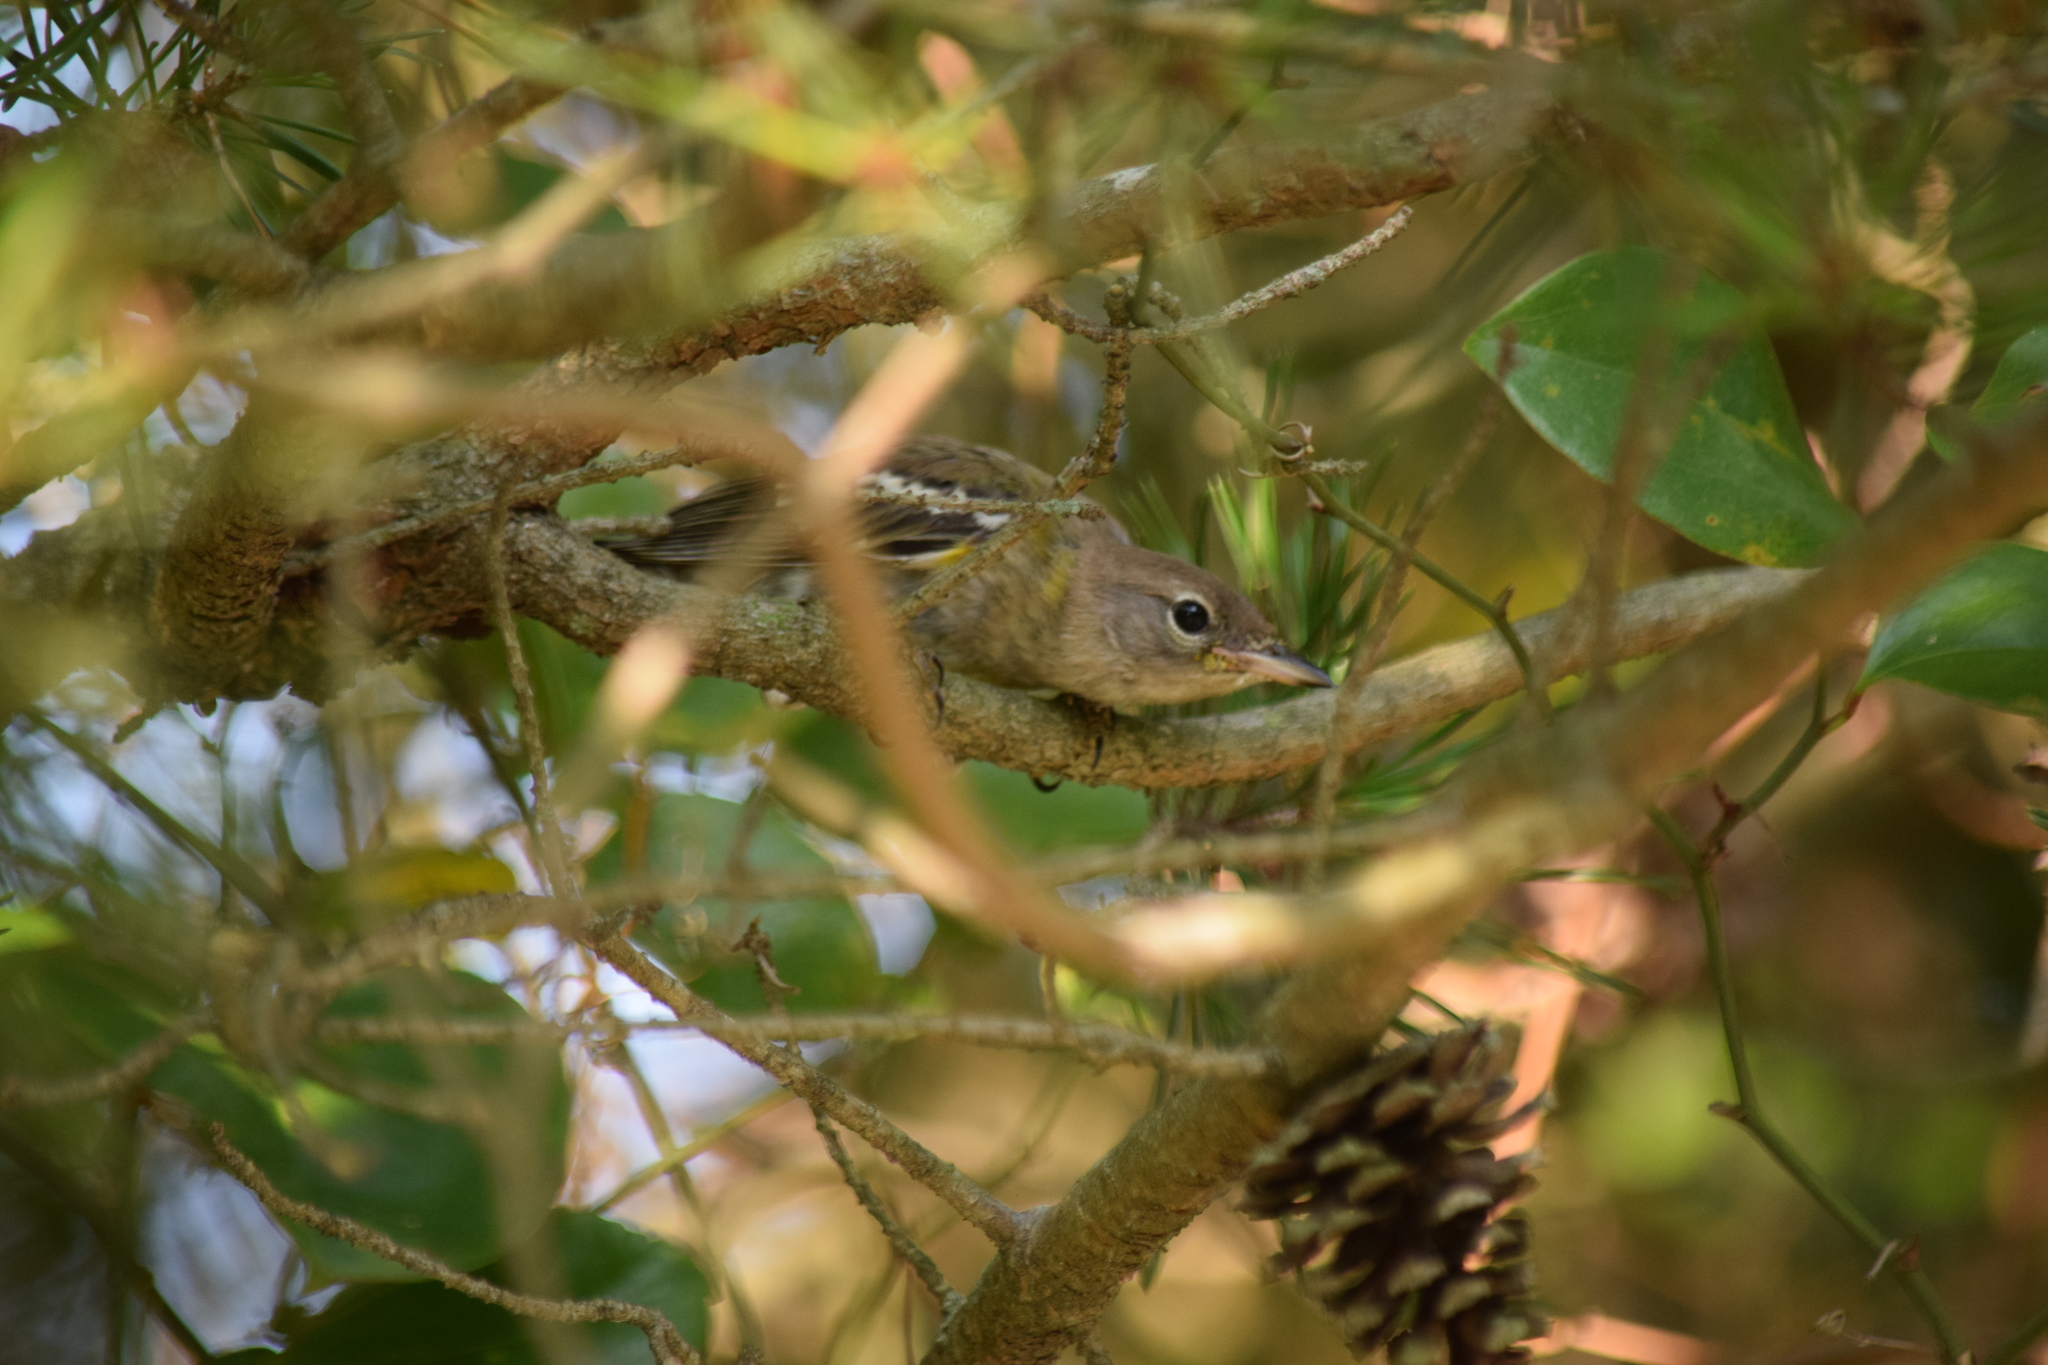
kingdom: Animalia
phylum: Chordata
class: Aves
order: Passeriformes
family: Parulidae
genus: Setophaga
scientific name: Setophaga pinus
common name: Pine warbler
